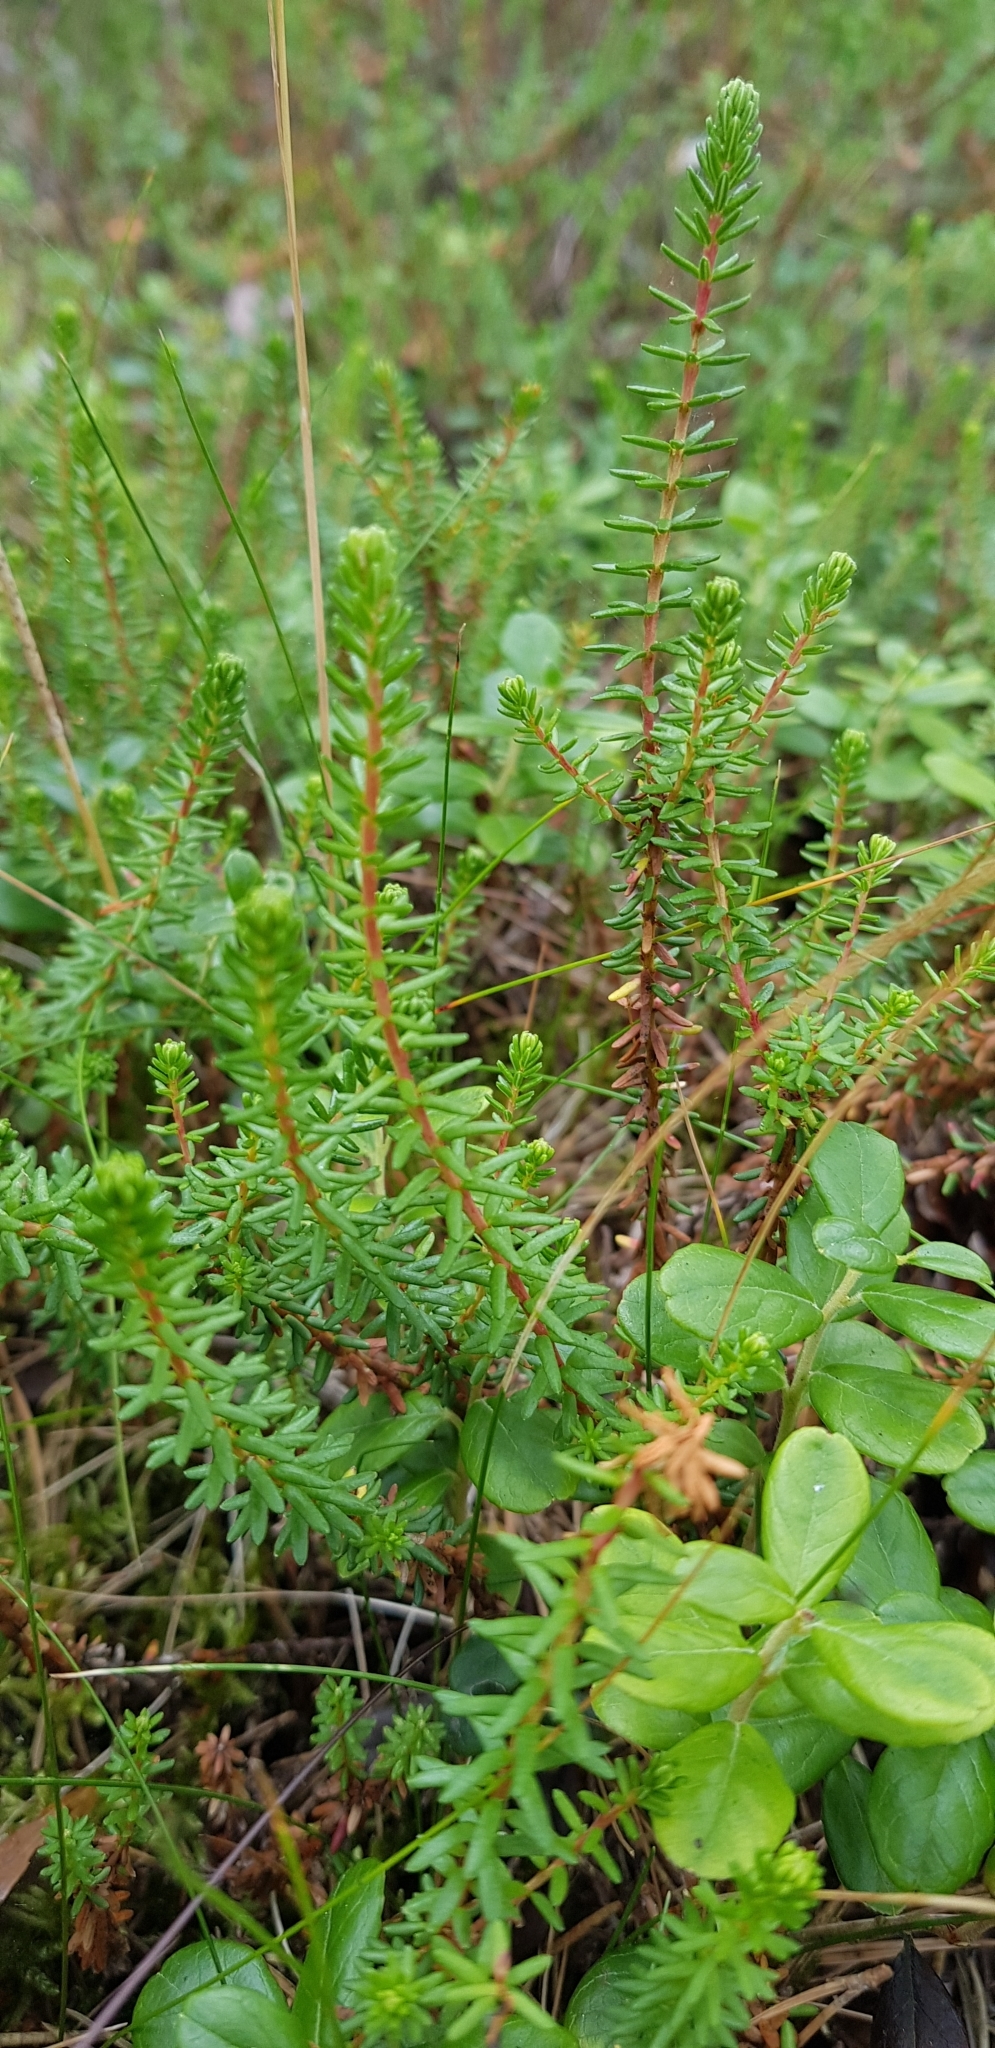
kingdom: Plantae
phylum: Tracheophyta
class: Magnoliopsida
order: Ericales
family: Ericaceae
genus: Empetrum
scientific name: Empetrum nigrum
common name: Black crowberry
